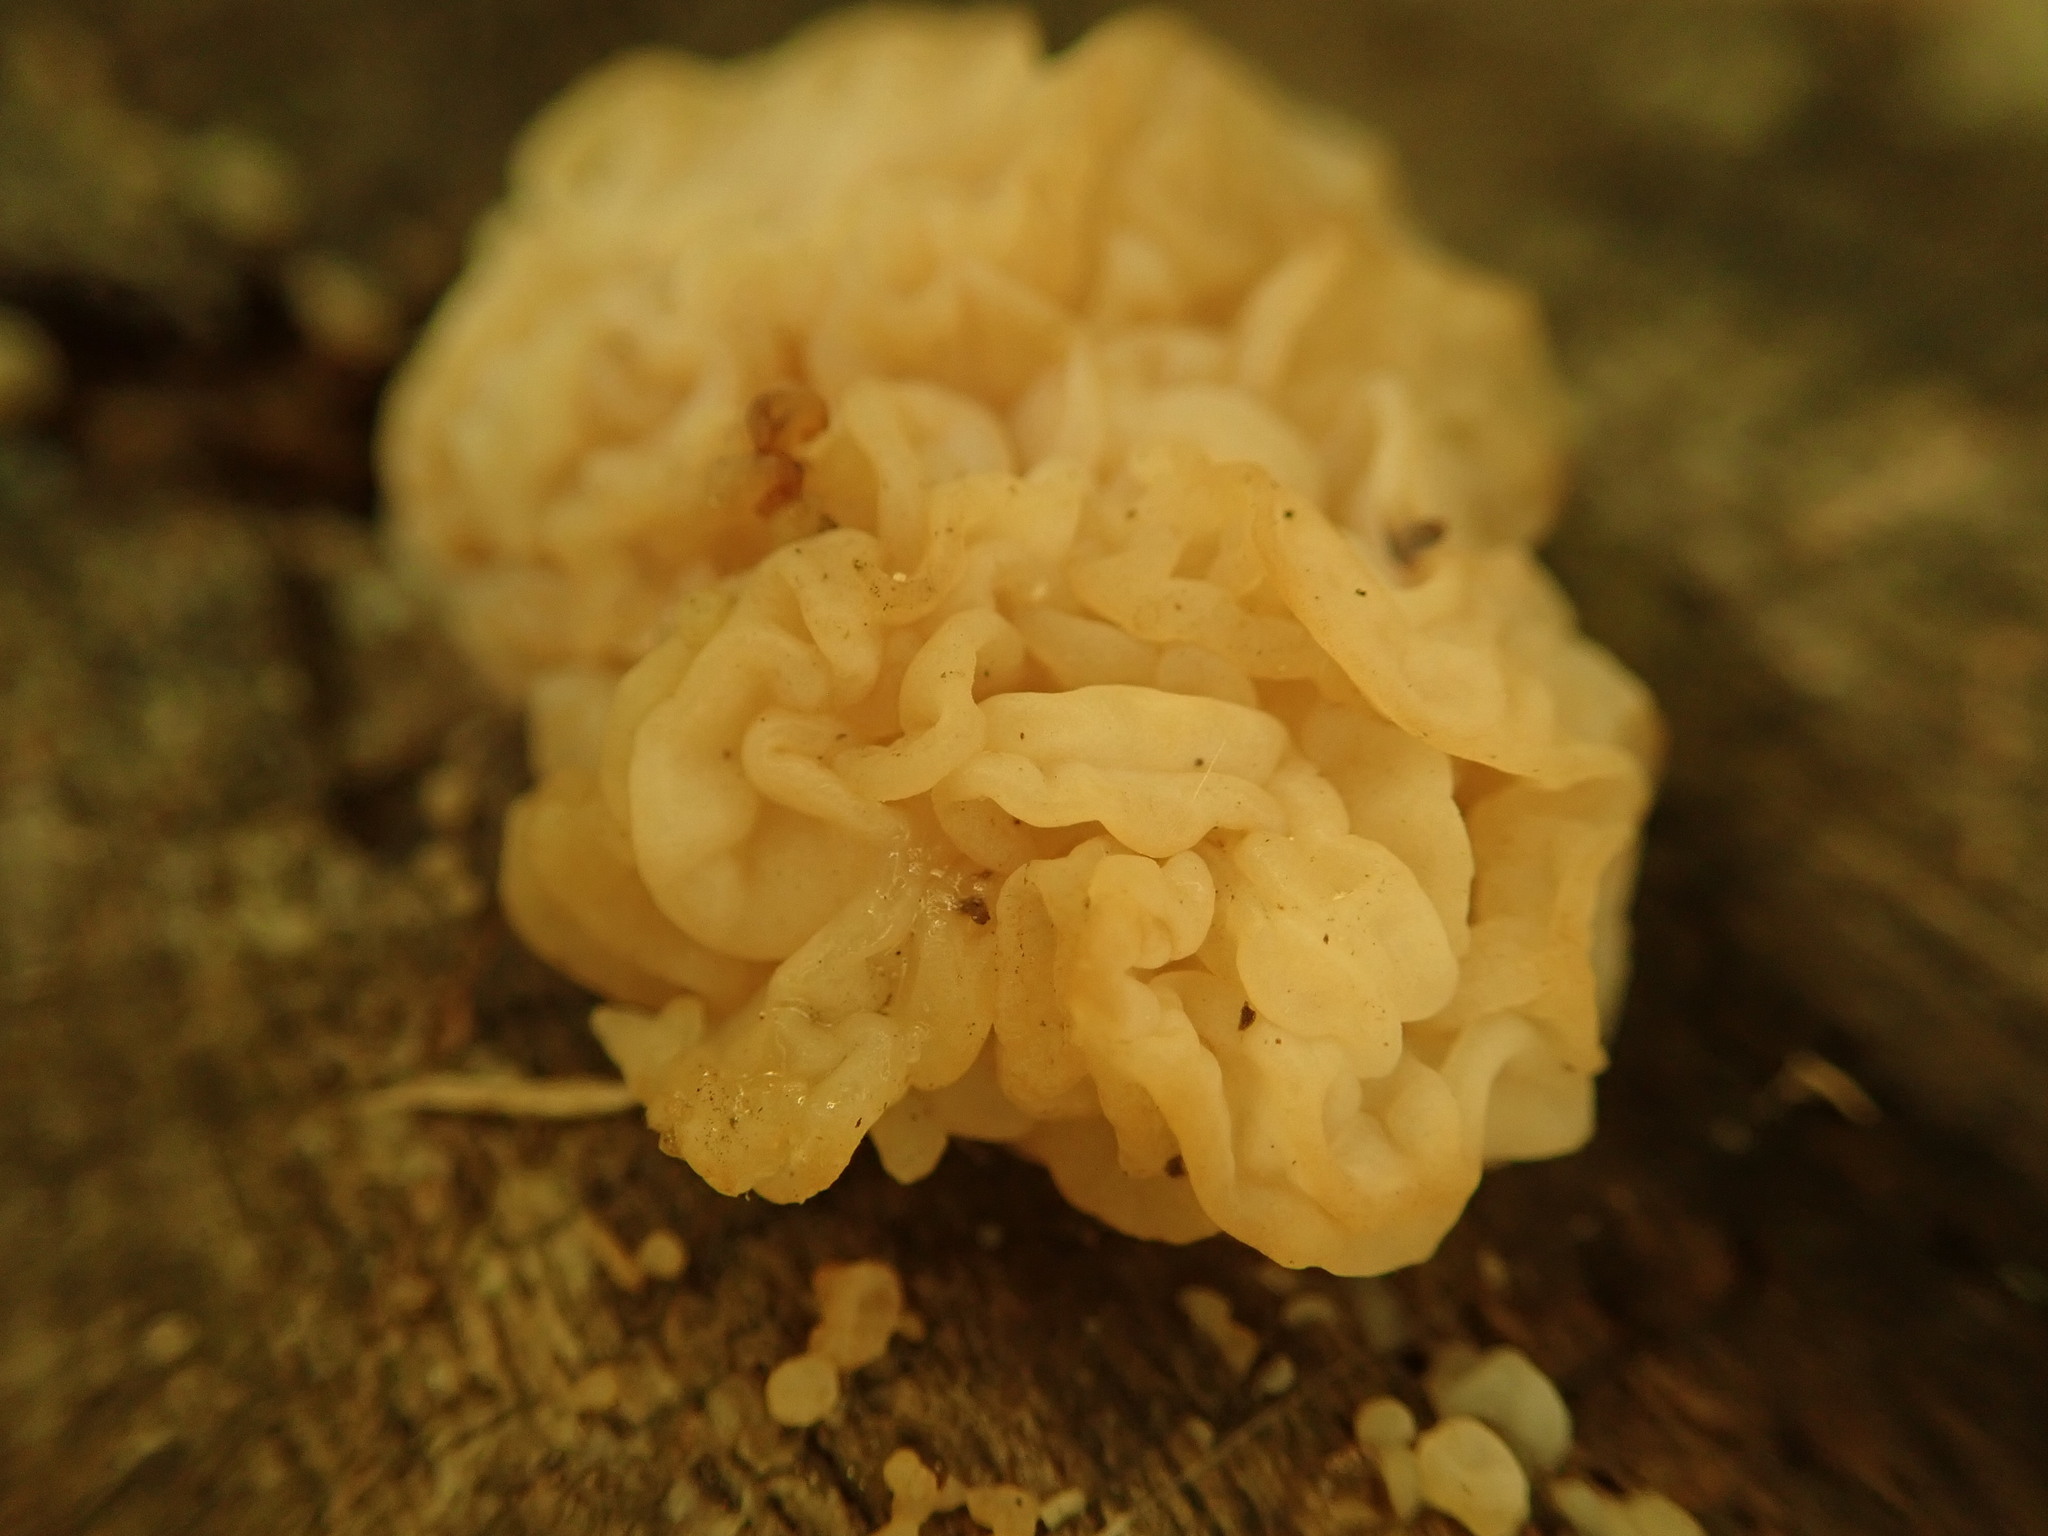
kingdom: Fungi
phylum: Basidiomycota
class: Agaricomycetes
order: Auriculariales
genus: Ductifera
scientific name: Ductifera pululahuana
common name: White jelly fungus
